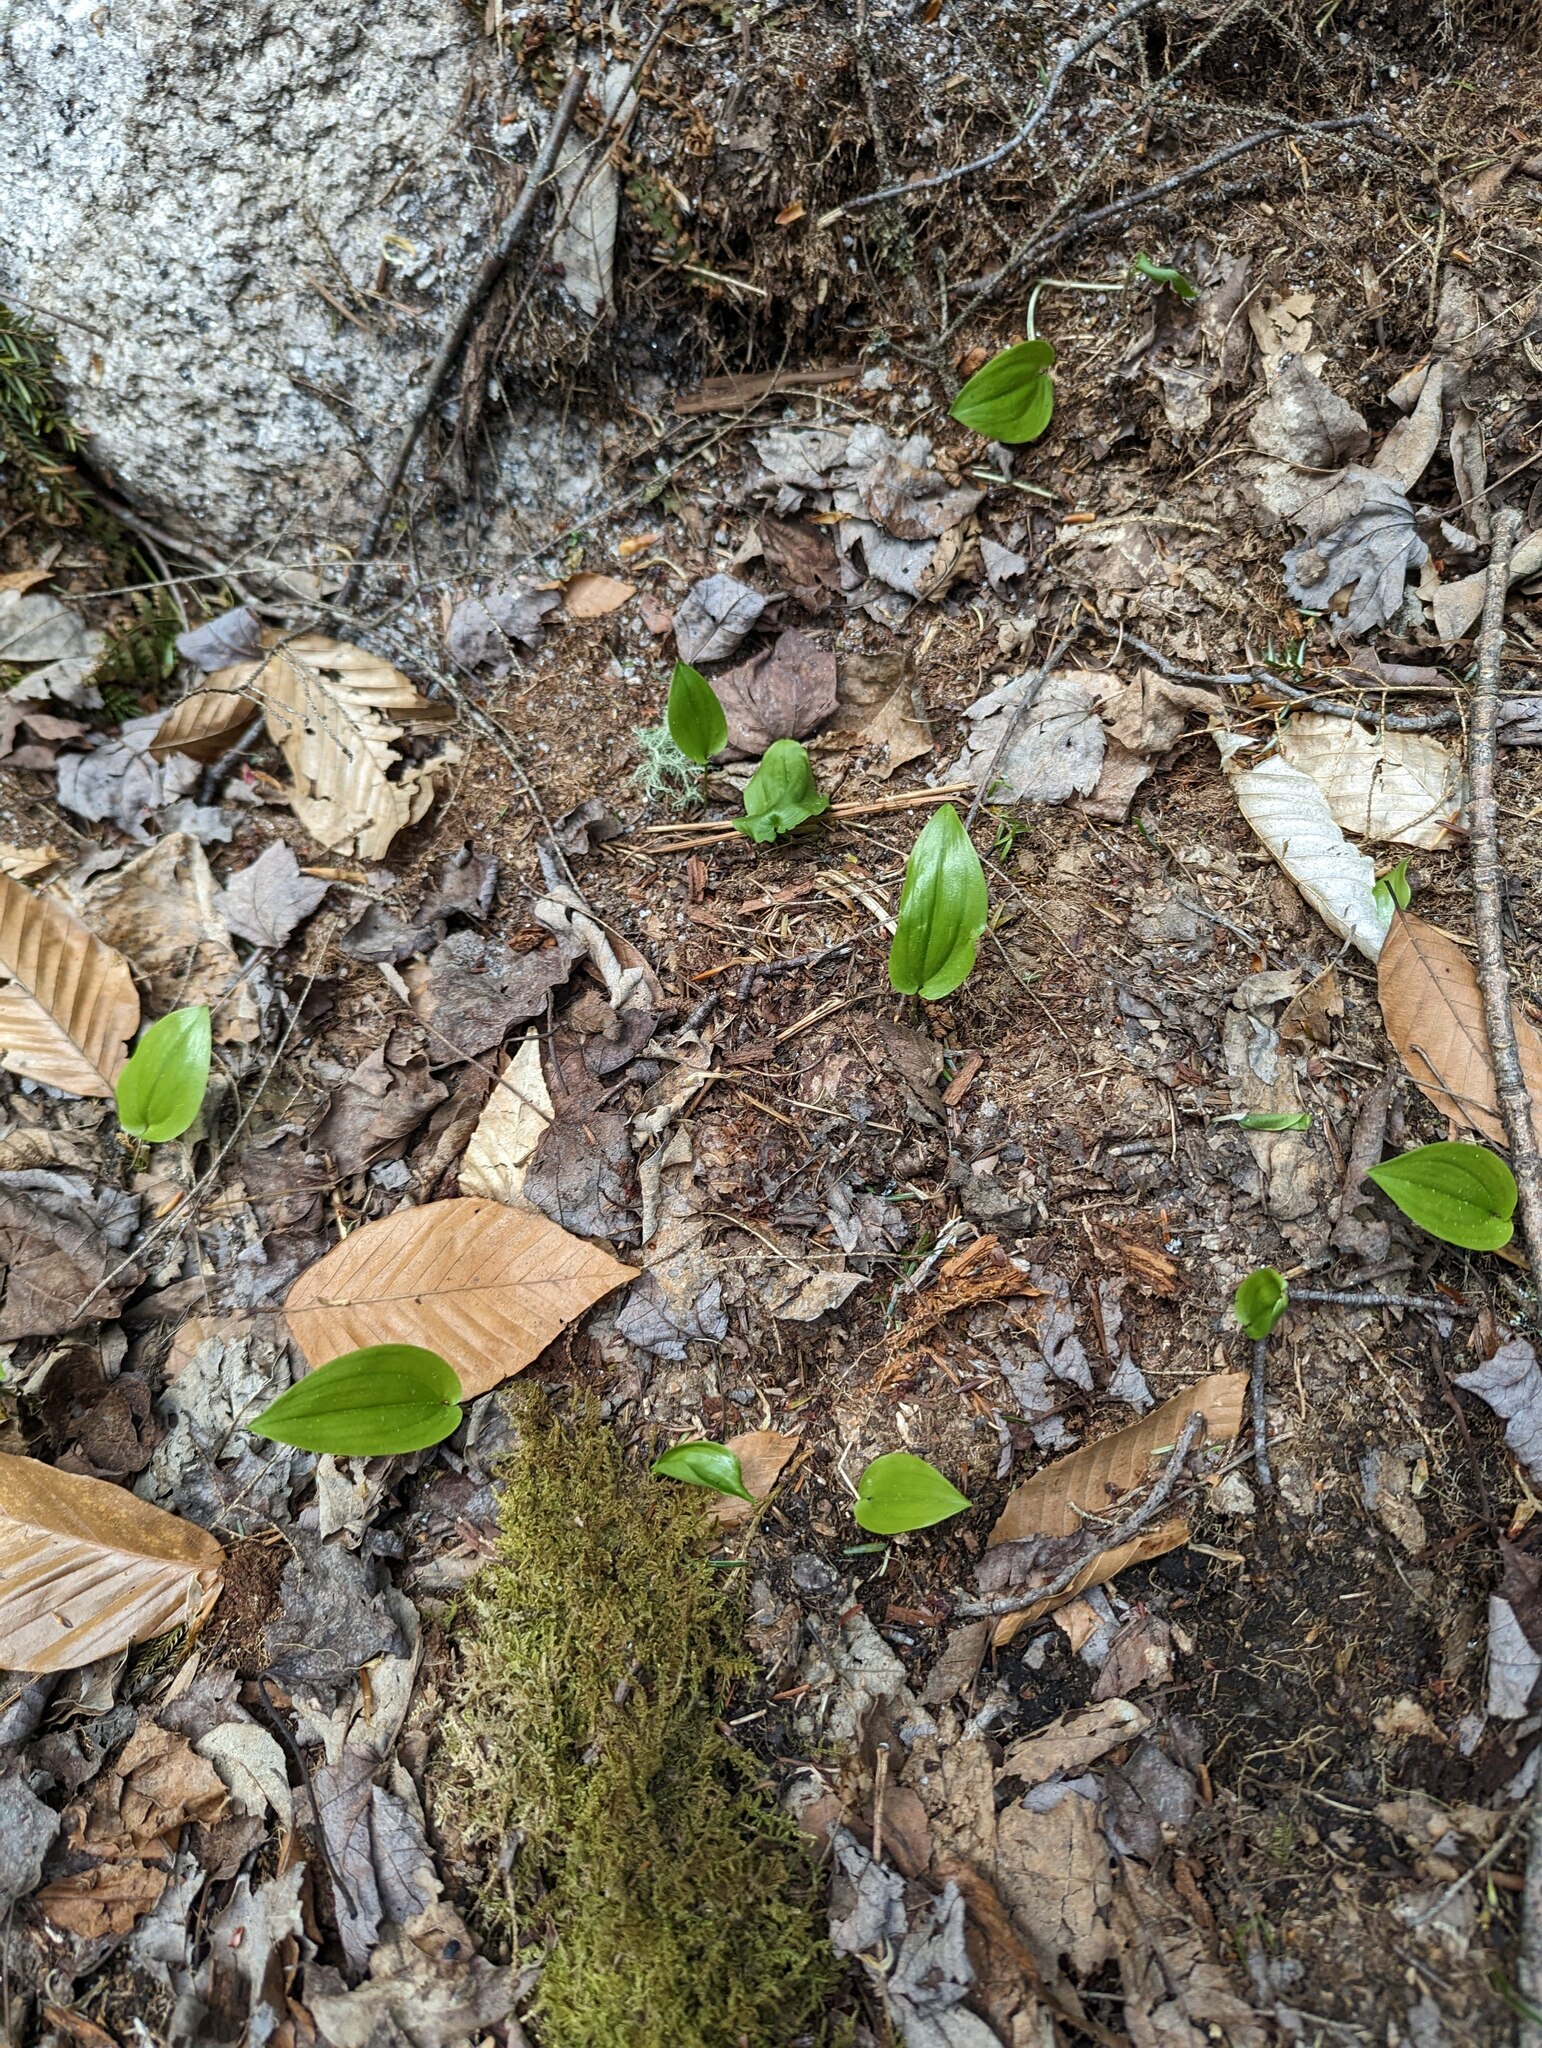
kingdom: Plantae
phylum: Tracheophyta
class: Liliopsida
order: Asparagales
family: Asparagaceae
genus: Maianthemum
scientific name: Maianthemum canadense
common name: False lily-of-the-valley
